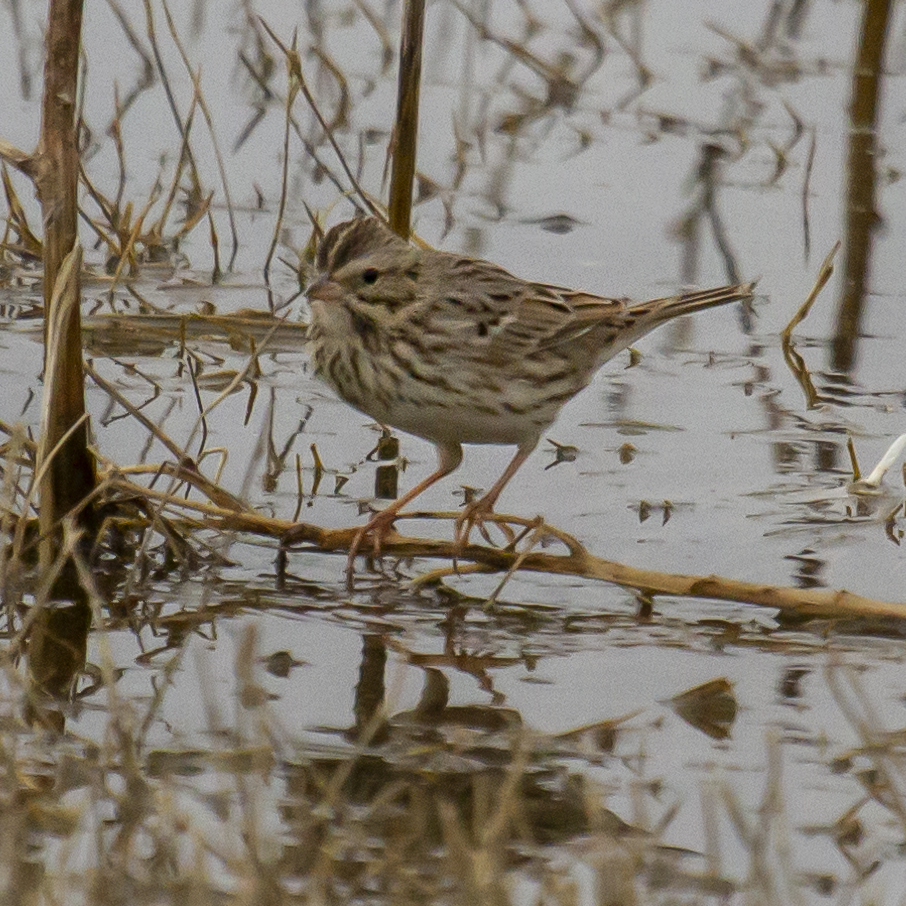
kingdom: Animalia
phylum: Chordata
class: Aves
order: Passeriformes
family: Passerellidae
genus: Passerculus
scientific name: Passerculus sandwichensis
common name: Savannah sparrow
